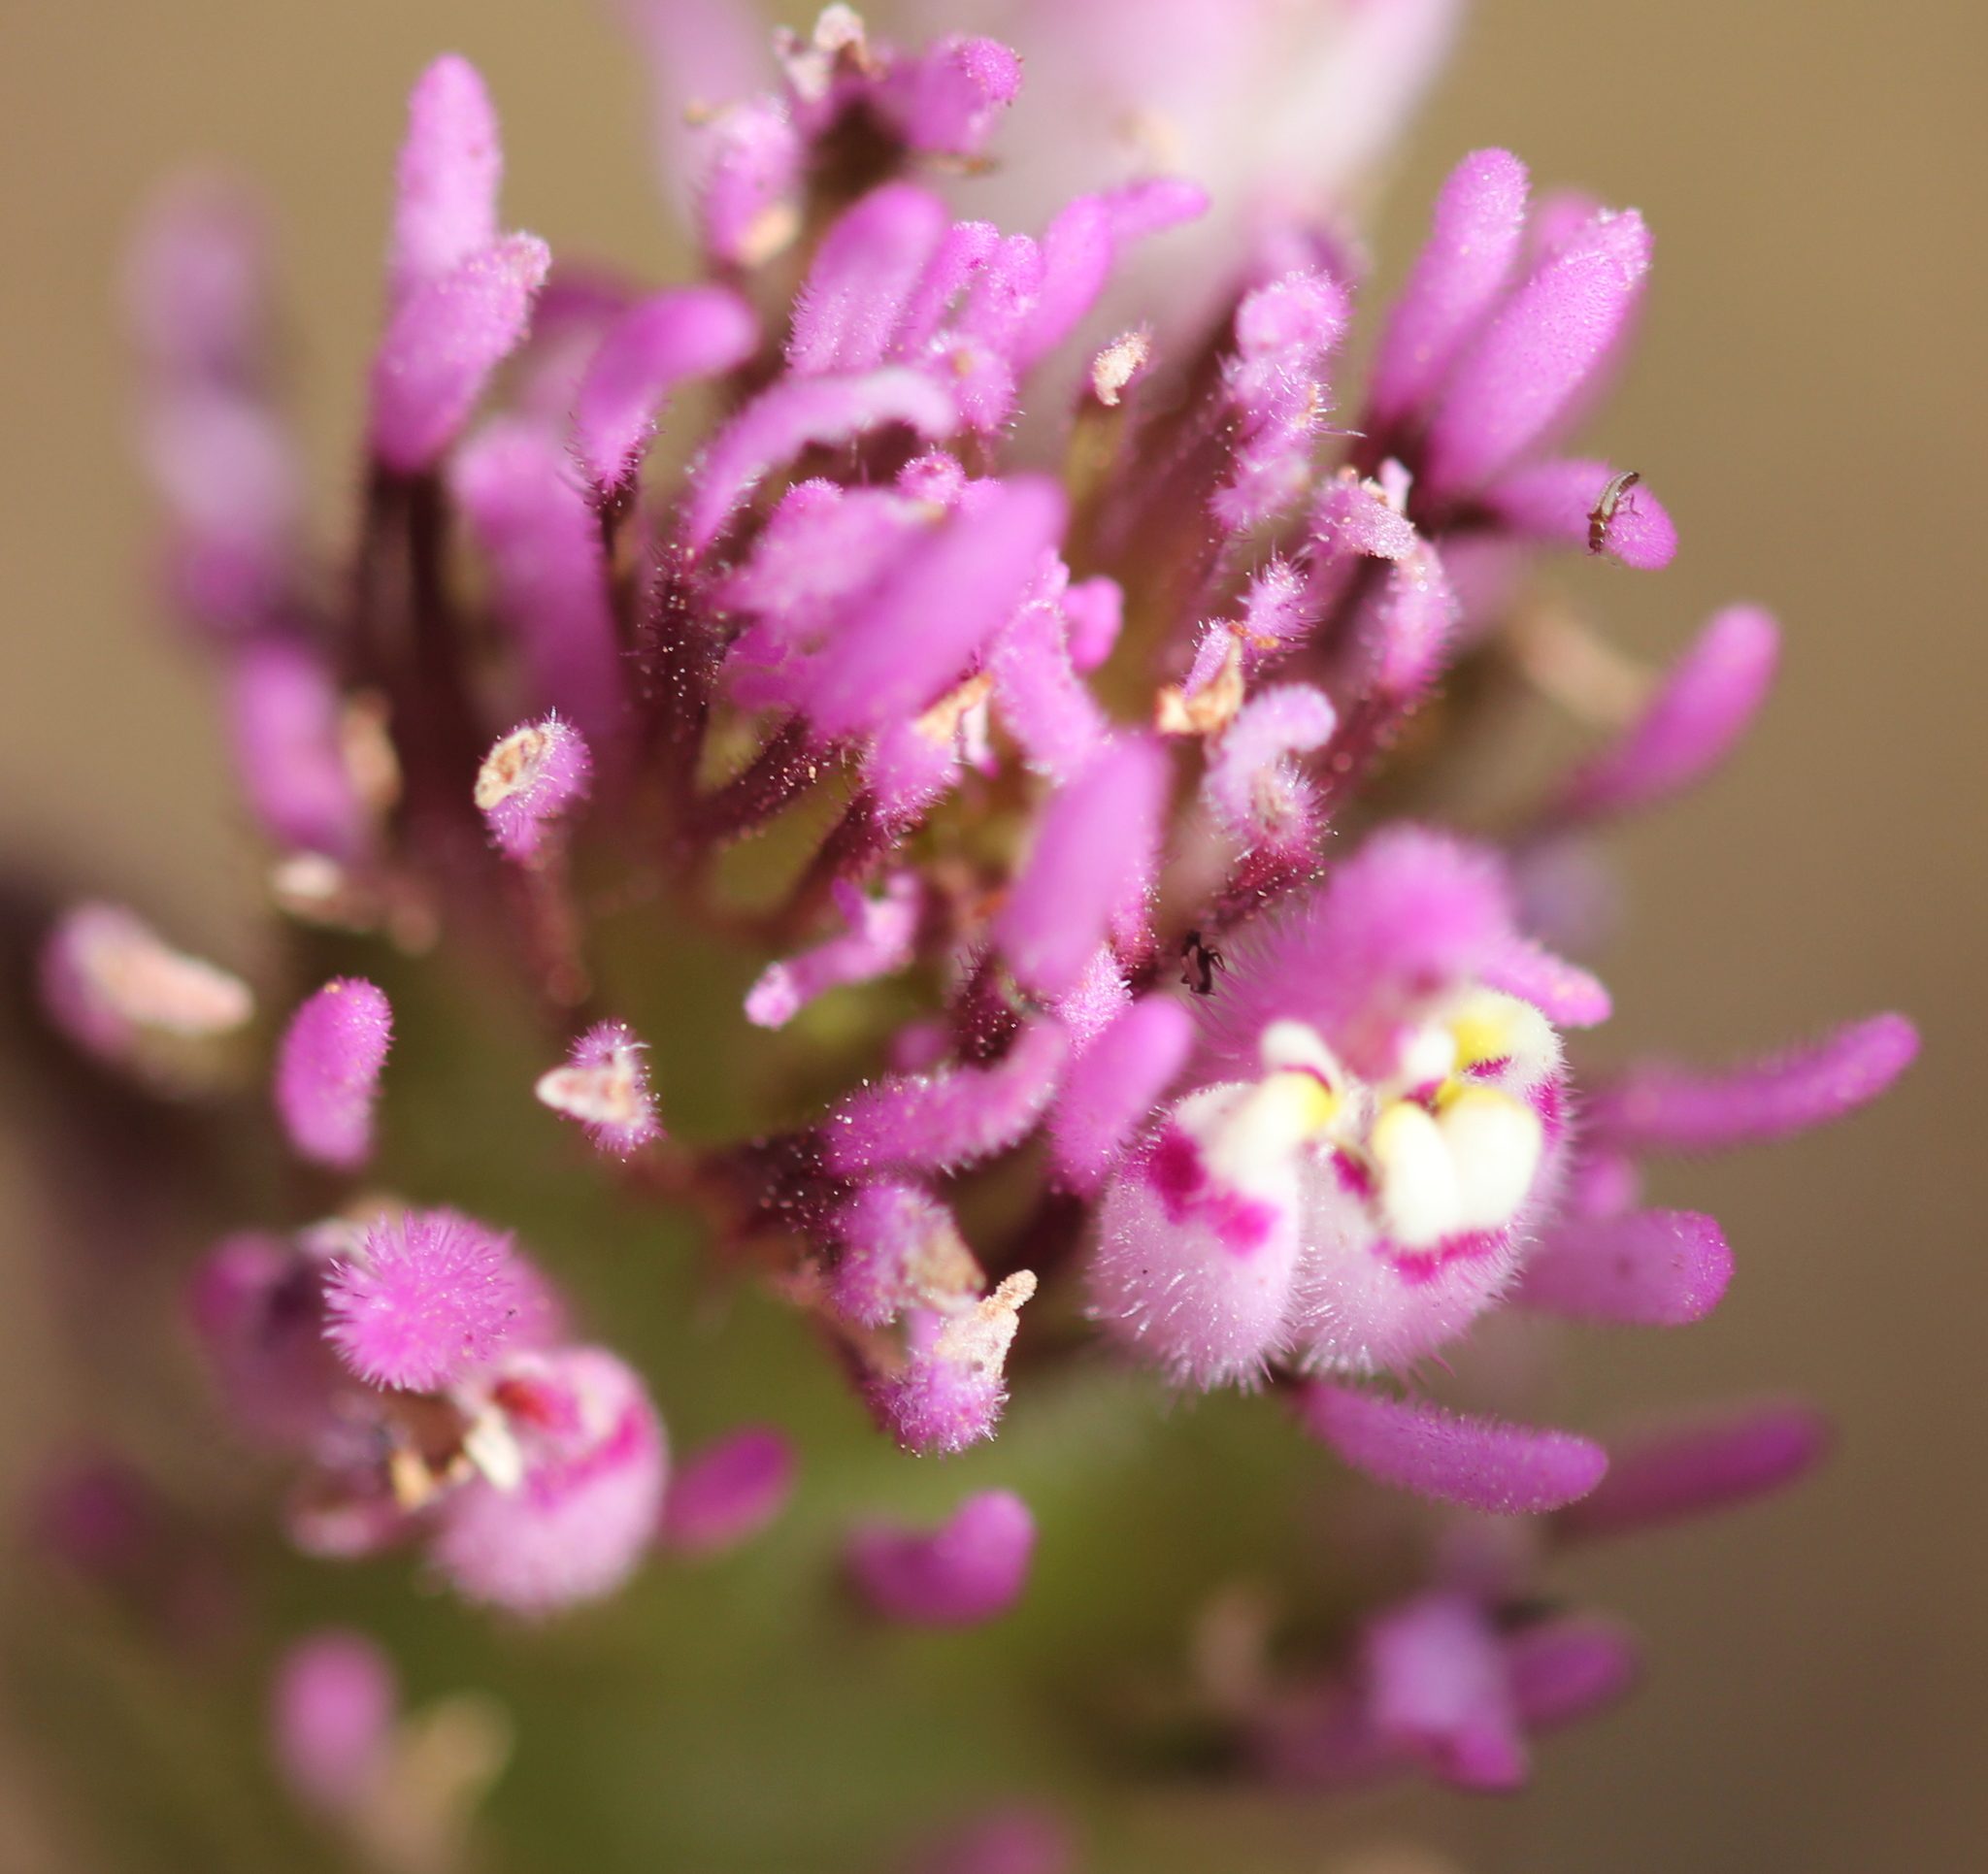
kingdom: Plantae
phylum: Tracheophyta
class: Magnoliopsida
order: Lamiales
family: Orobanchaceae
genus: Castilleja
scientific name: Castilleja exserta
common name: Purple owl-clover
